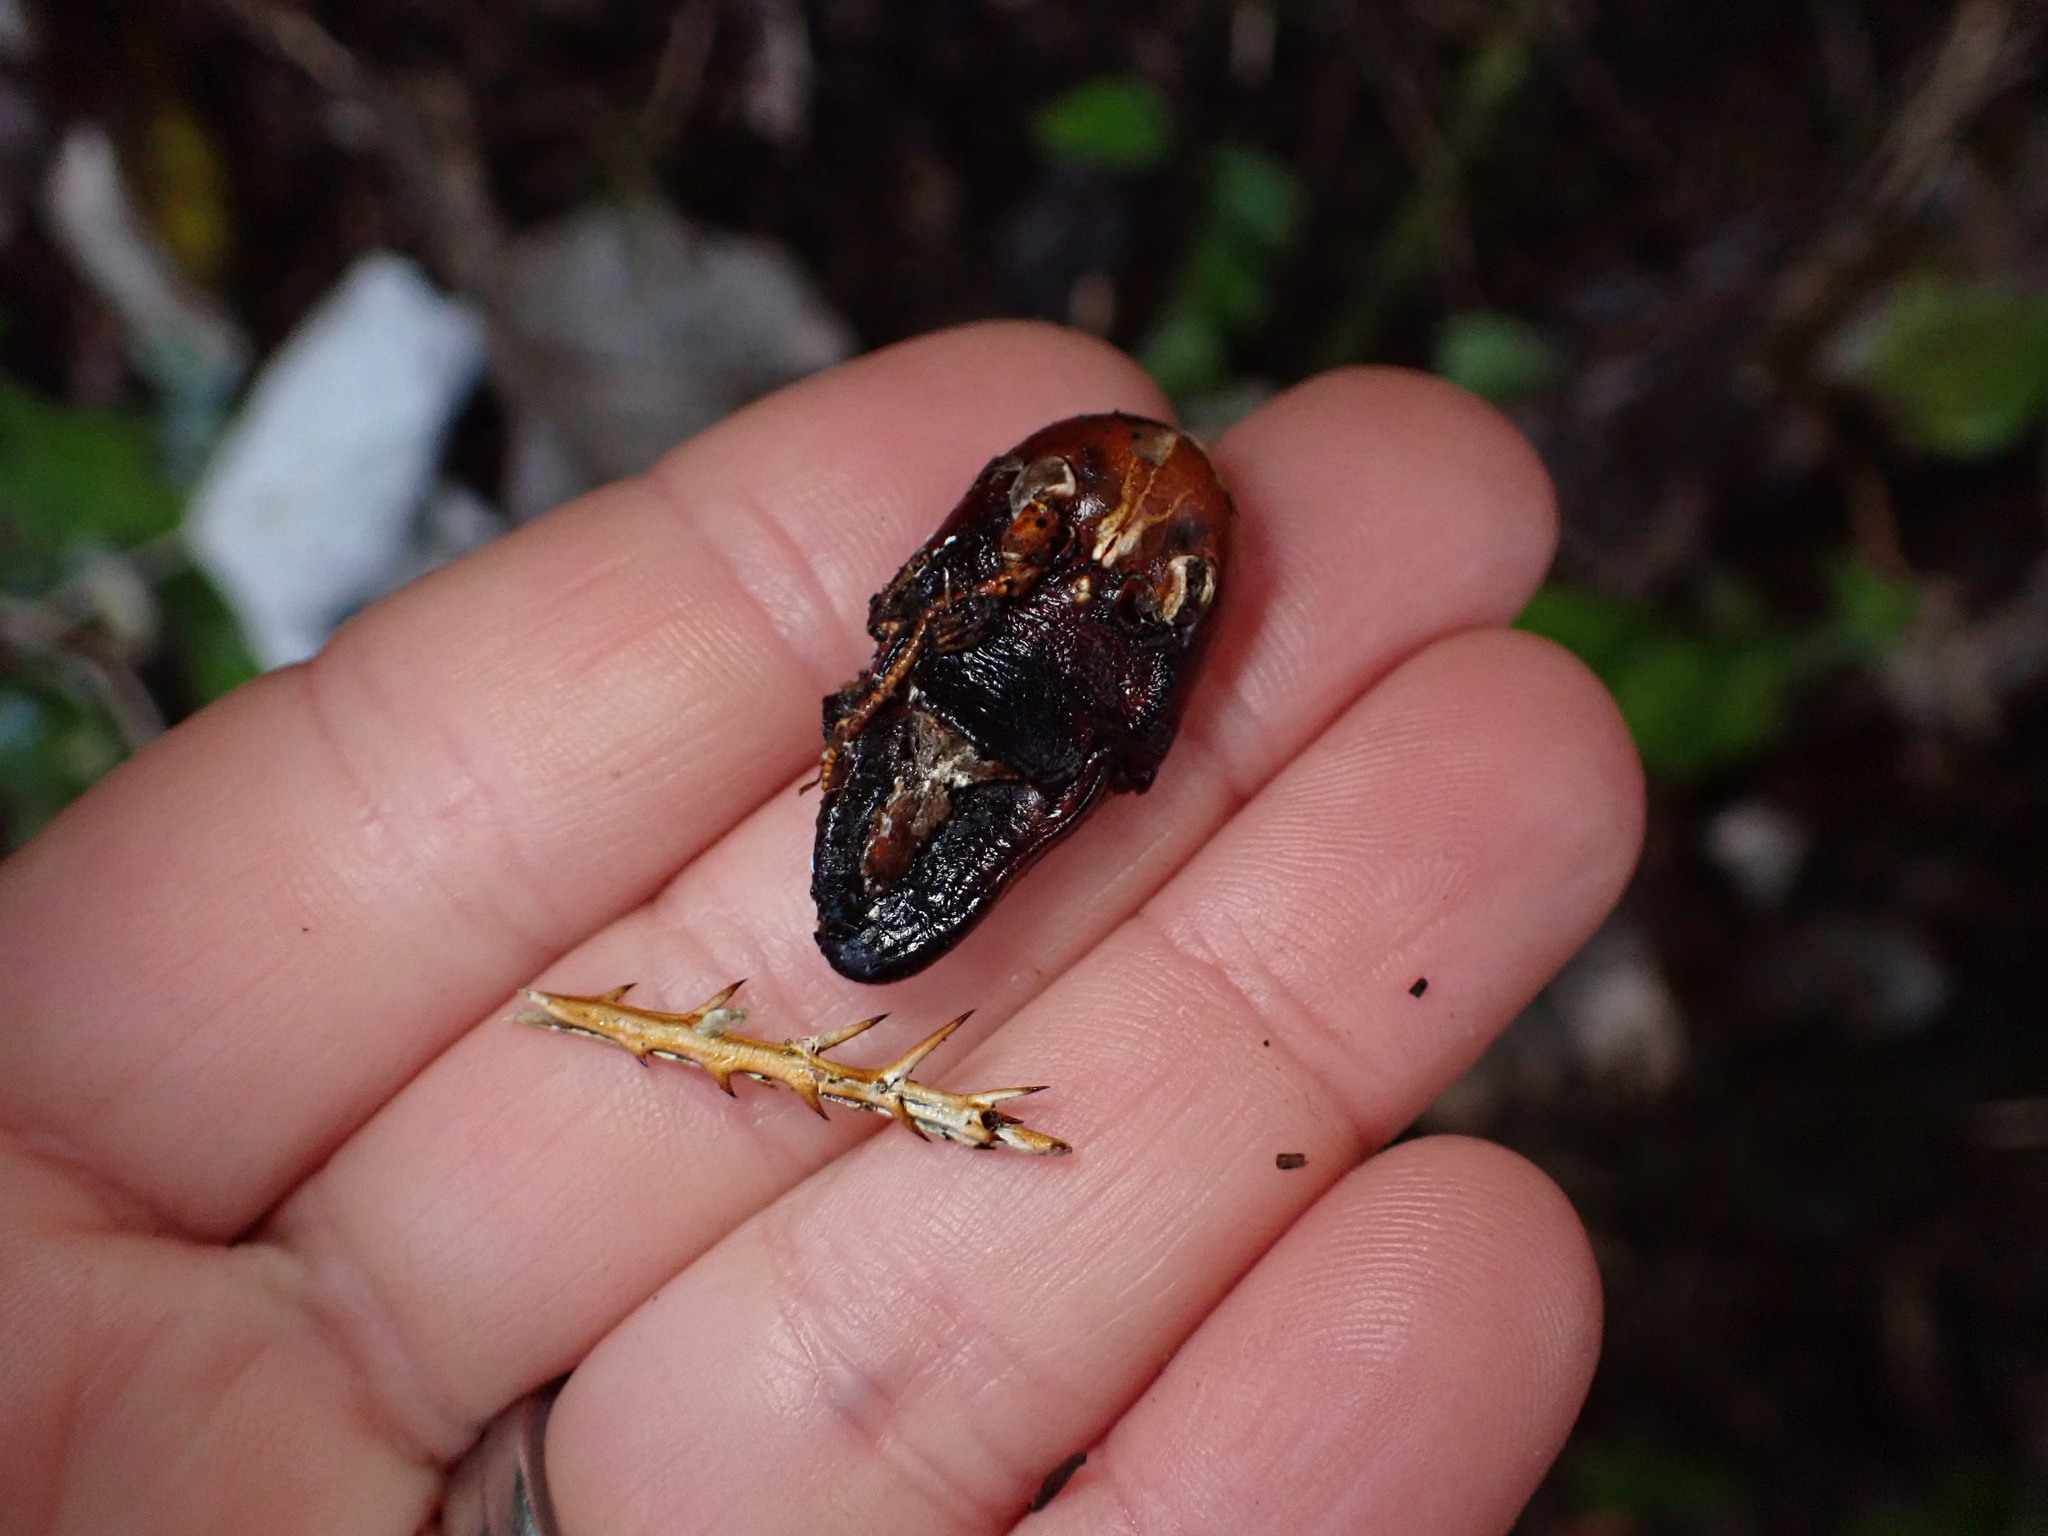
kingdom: Animalia
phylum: Arthropoda
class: Insecta
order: Orthoptera
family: Anostostomatidae
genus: Hemideina
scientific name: Hemideina crassidens
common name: Wellington tree weta
